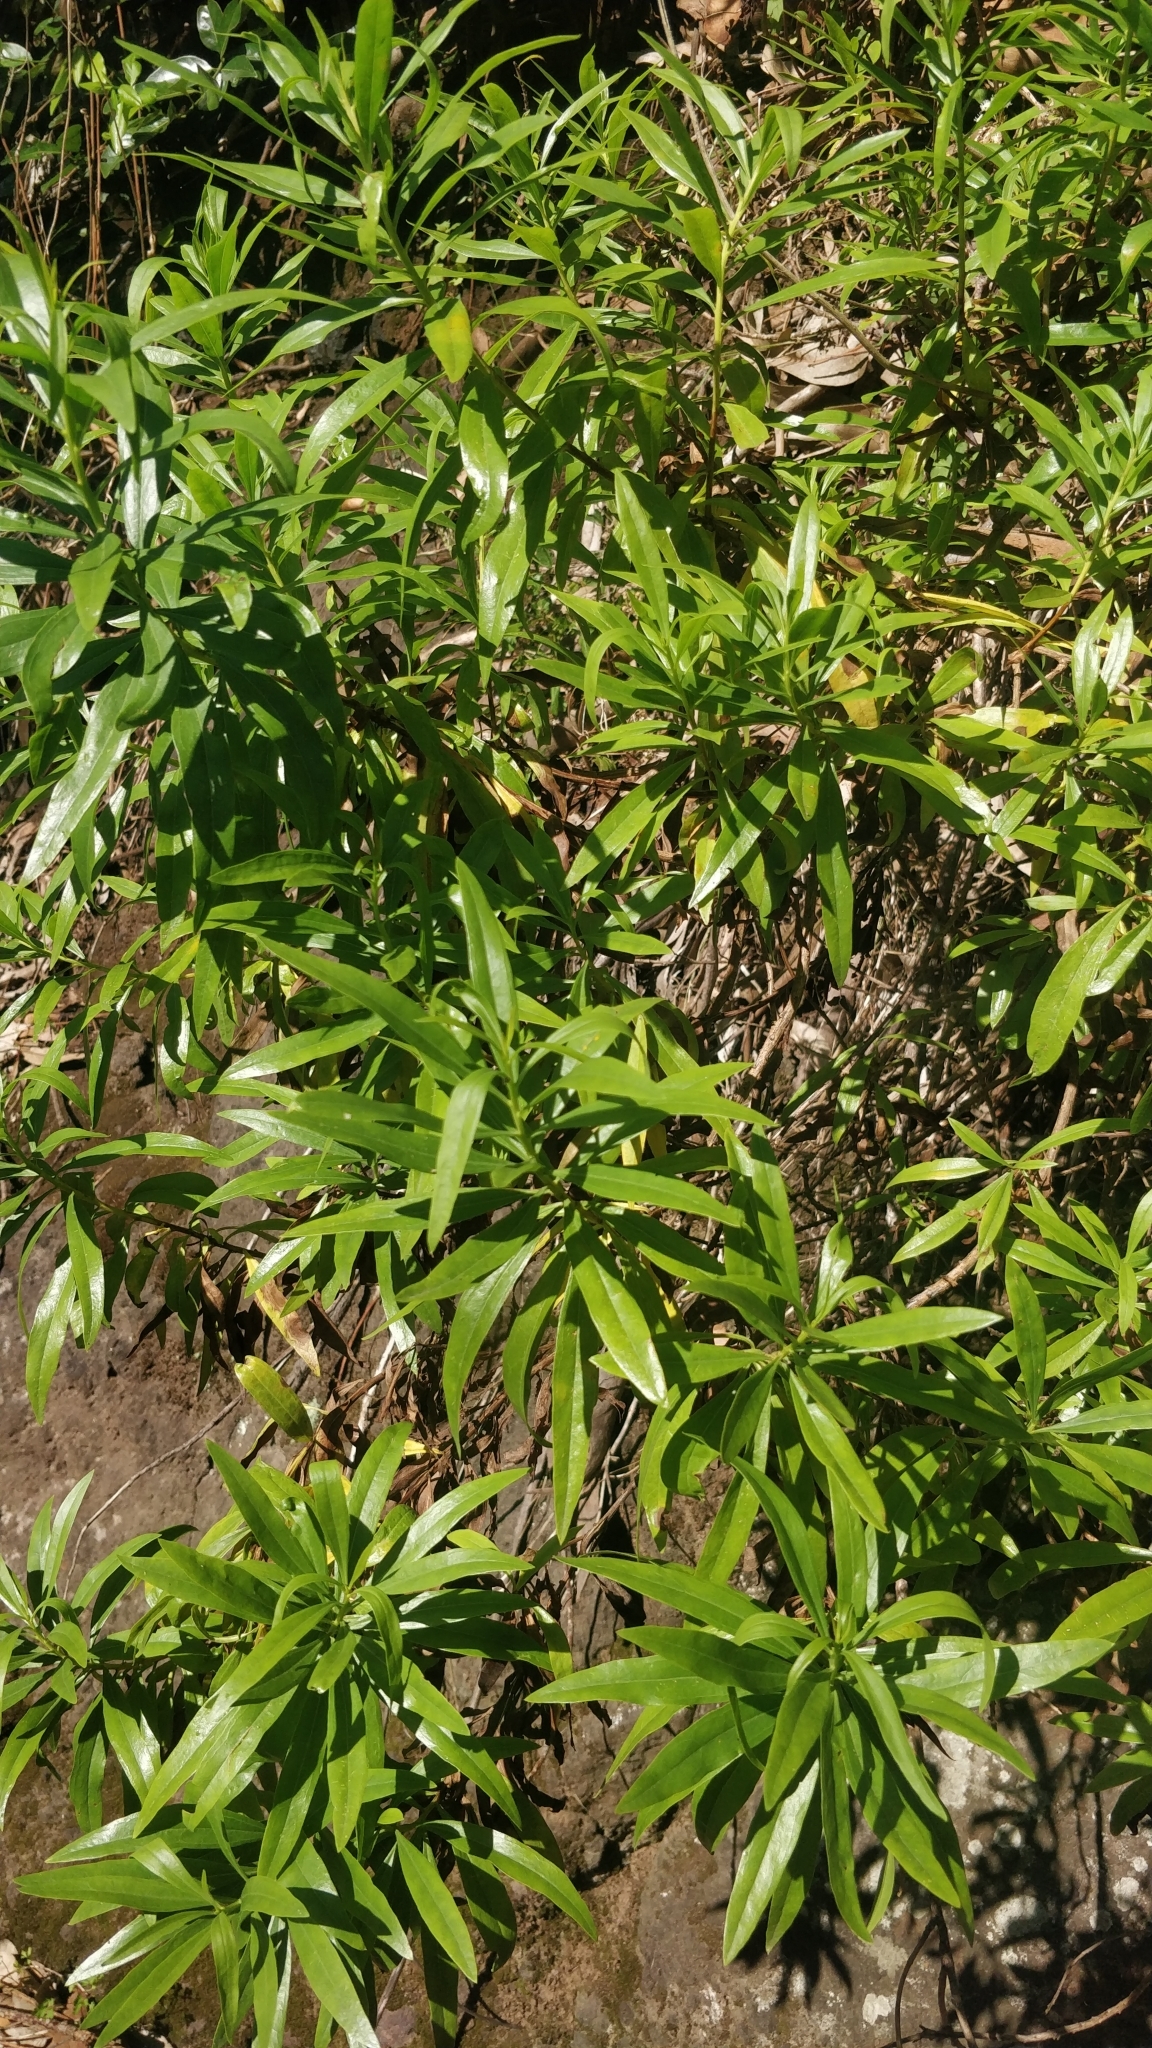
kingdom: Plantae
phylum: Tracheophyta
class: Magnoliopsida
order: Lamiales
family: Plantaginaceae
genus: Globularia
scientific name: Globularia salicina
